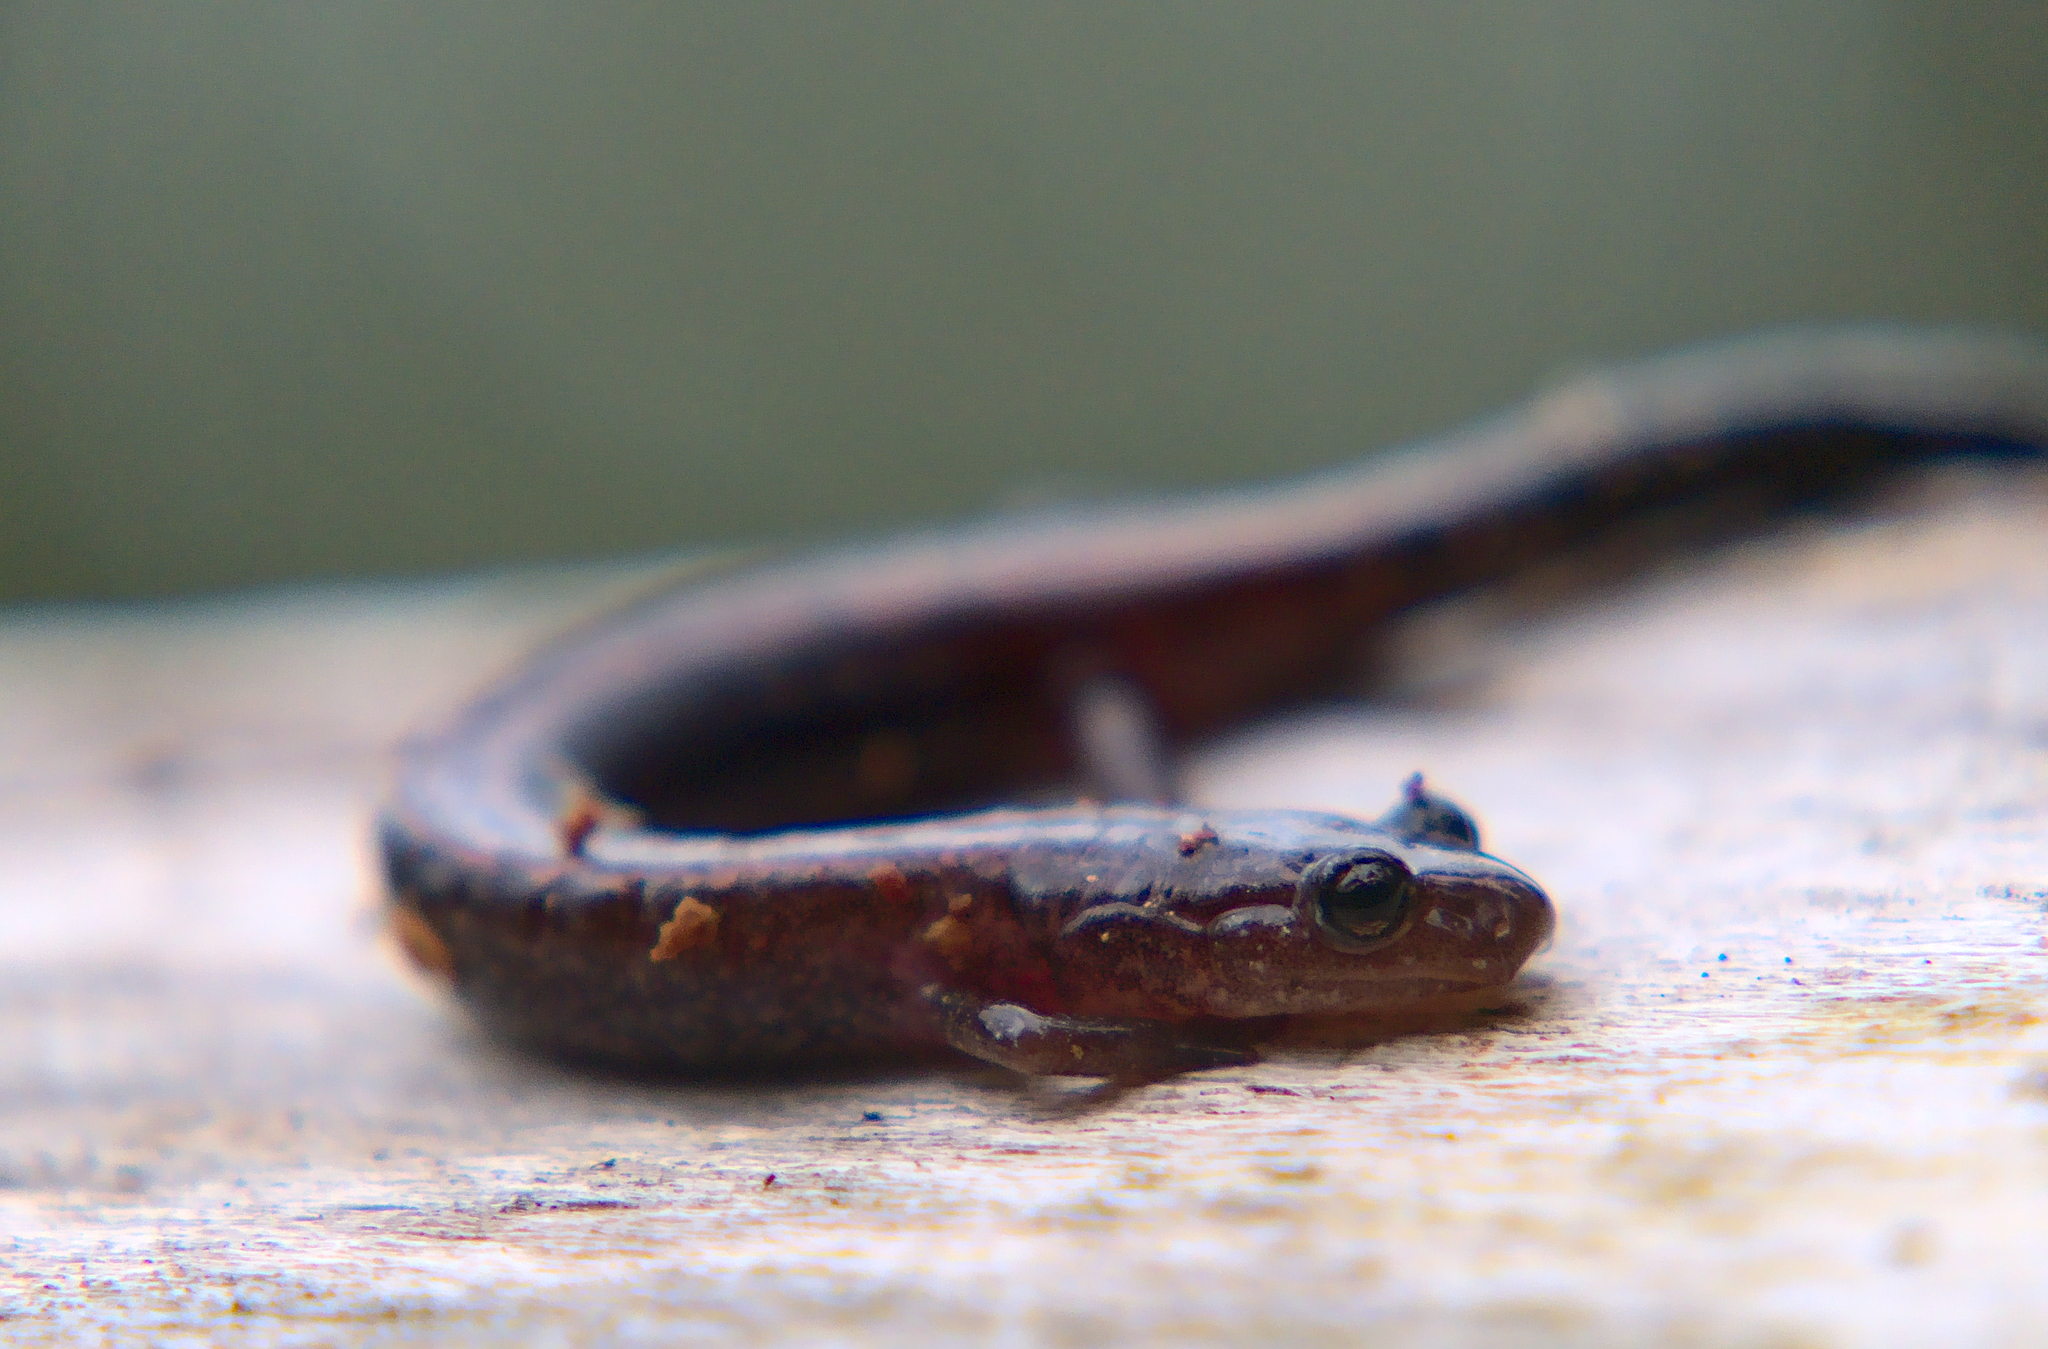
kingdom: Animalia
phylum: Chordata
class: Amphibia
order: Caudata
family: Plethodontidae
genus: Plethodon
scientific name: Plethodon cinereus
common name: Redback salamander
